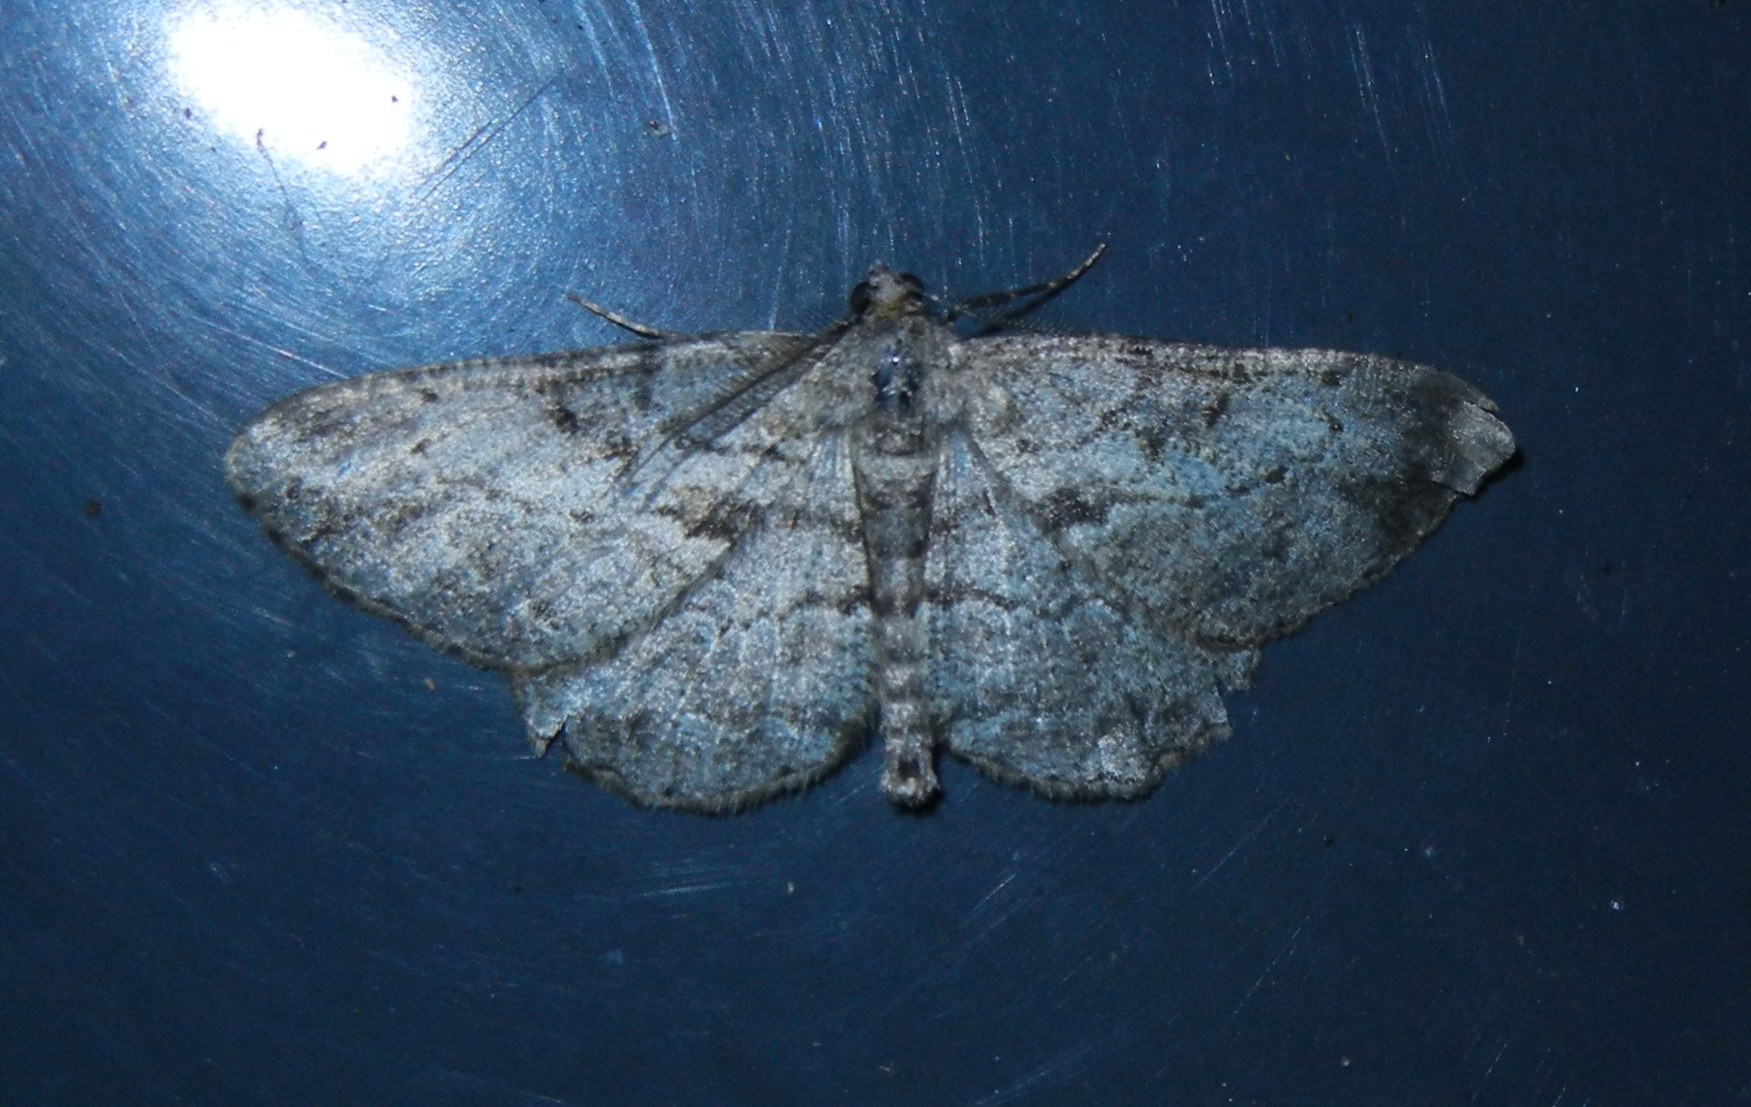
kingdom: Animalia
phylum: Arthropoda
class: Insecta
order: Lepidoptera
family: Geometridae
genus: Peribatodes
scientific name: Peribatodes rhomboidaria
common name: Willow beauty
